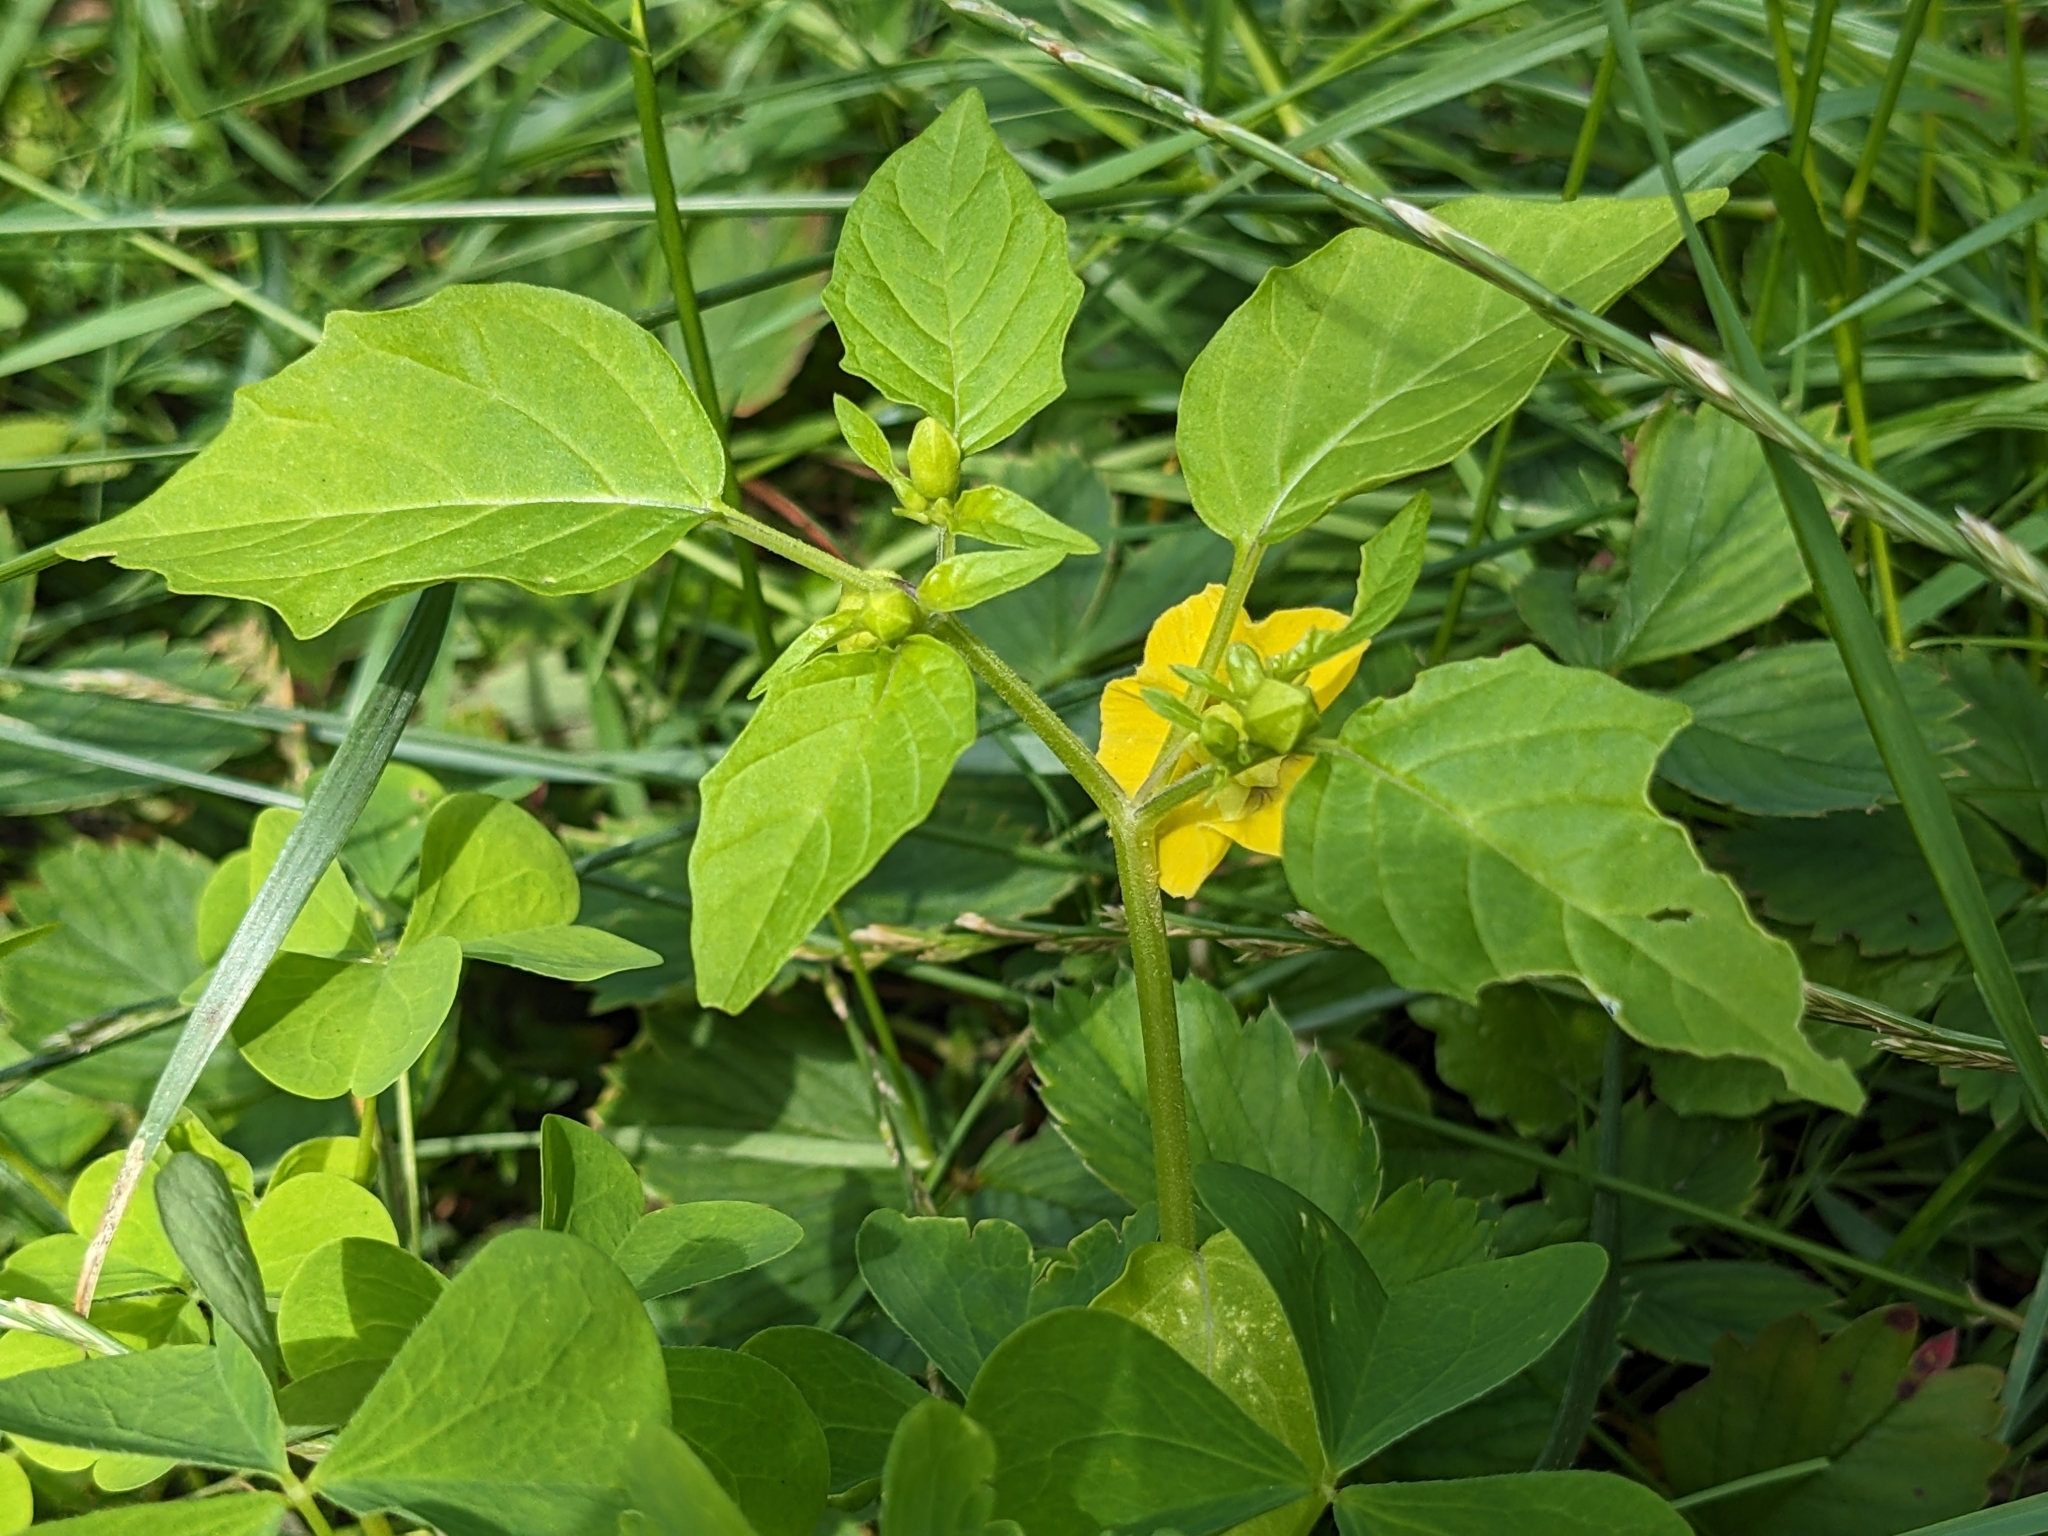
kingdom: Plantae
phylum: Tracheophyta
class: Magnoliopsida
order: Solanales
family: Solanaceae
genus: Physalis
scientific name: Physalis philadelphica
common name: Husk-tomato
